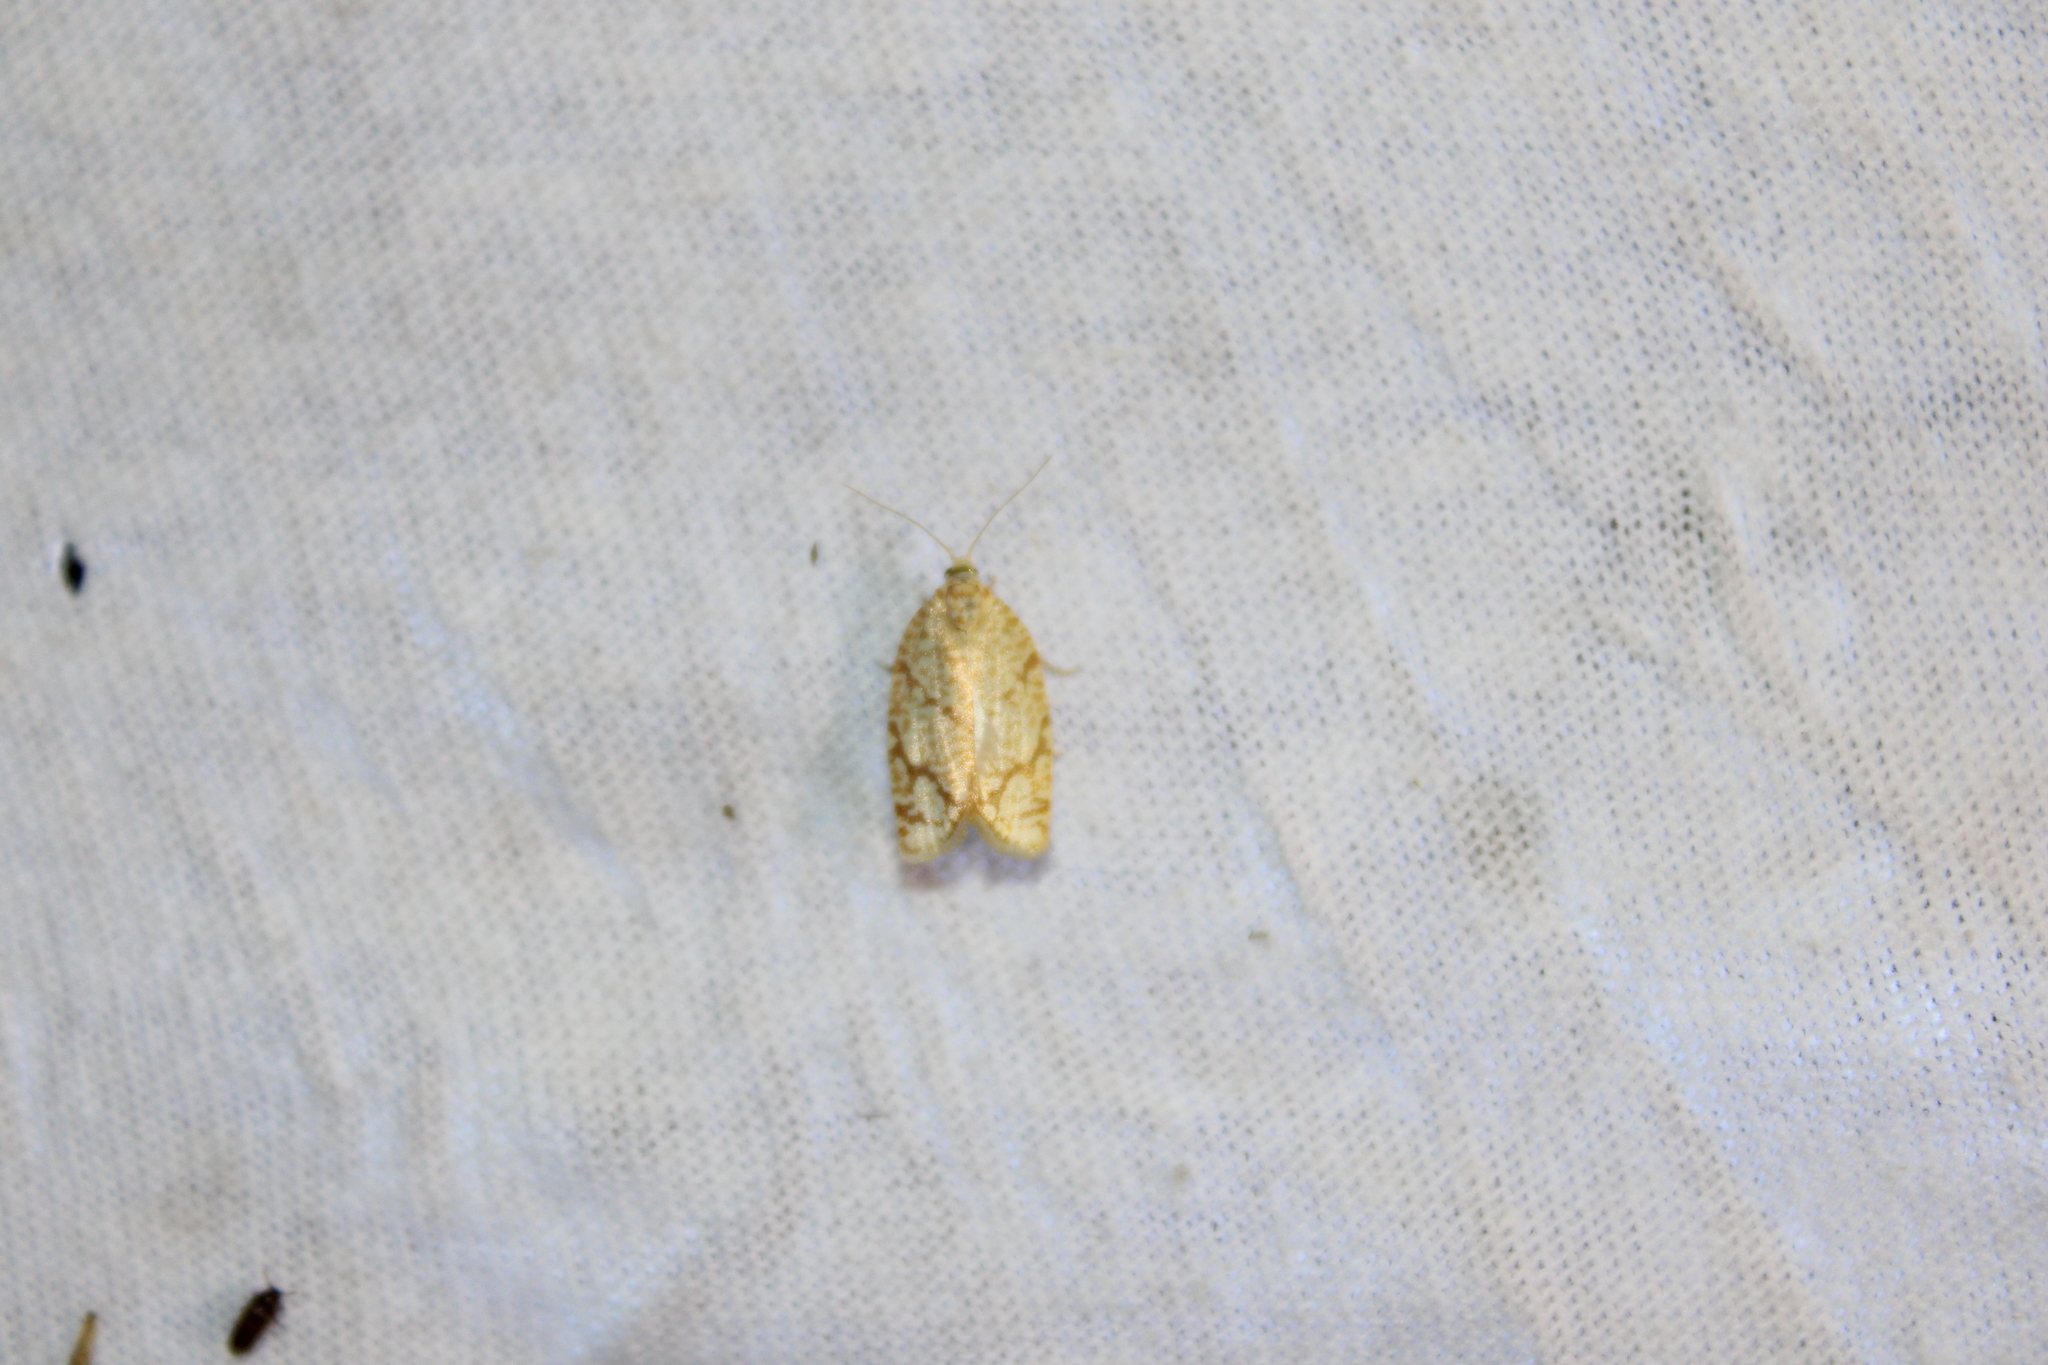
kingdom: Animalia
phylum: Arthropoda
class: Insecta
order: Lepidoptera
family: Tortricidae
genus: Argyrotaenia
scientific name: Argyrotaenia quercifoliana
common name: Yellow-winged oak leafroller moth
